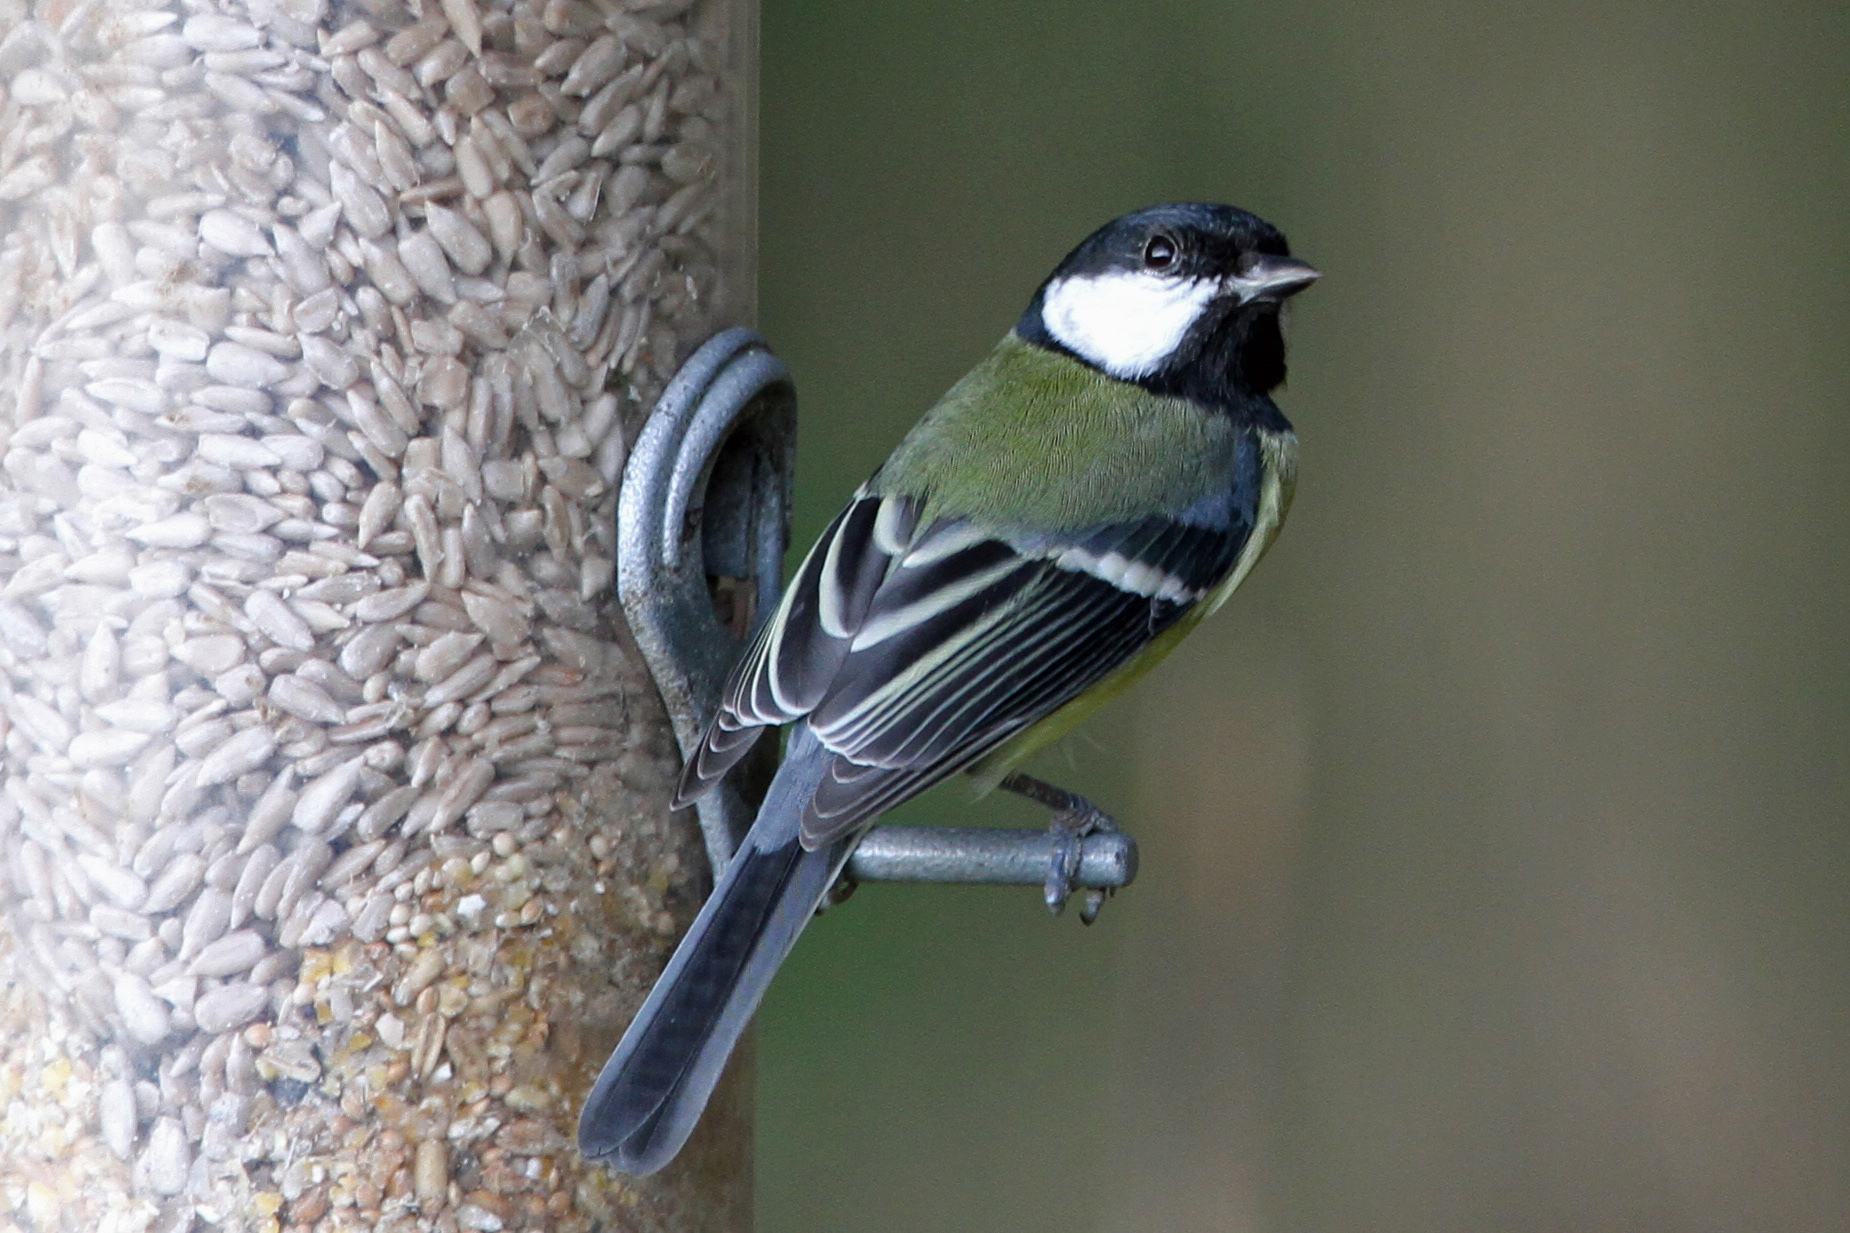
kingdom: Animalia
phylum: Chordata
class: Aves
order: Passeriformes
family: Paridae
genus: Parus
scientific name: Parus major
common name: Great tit
